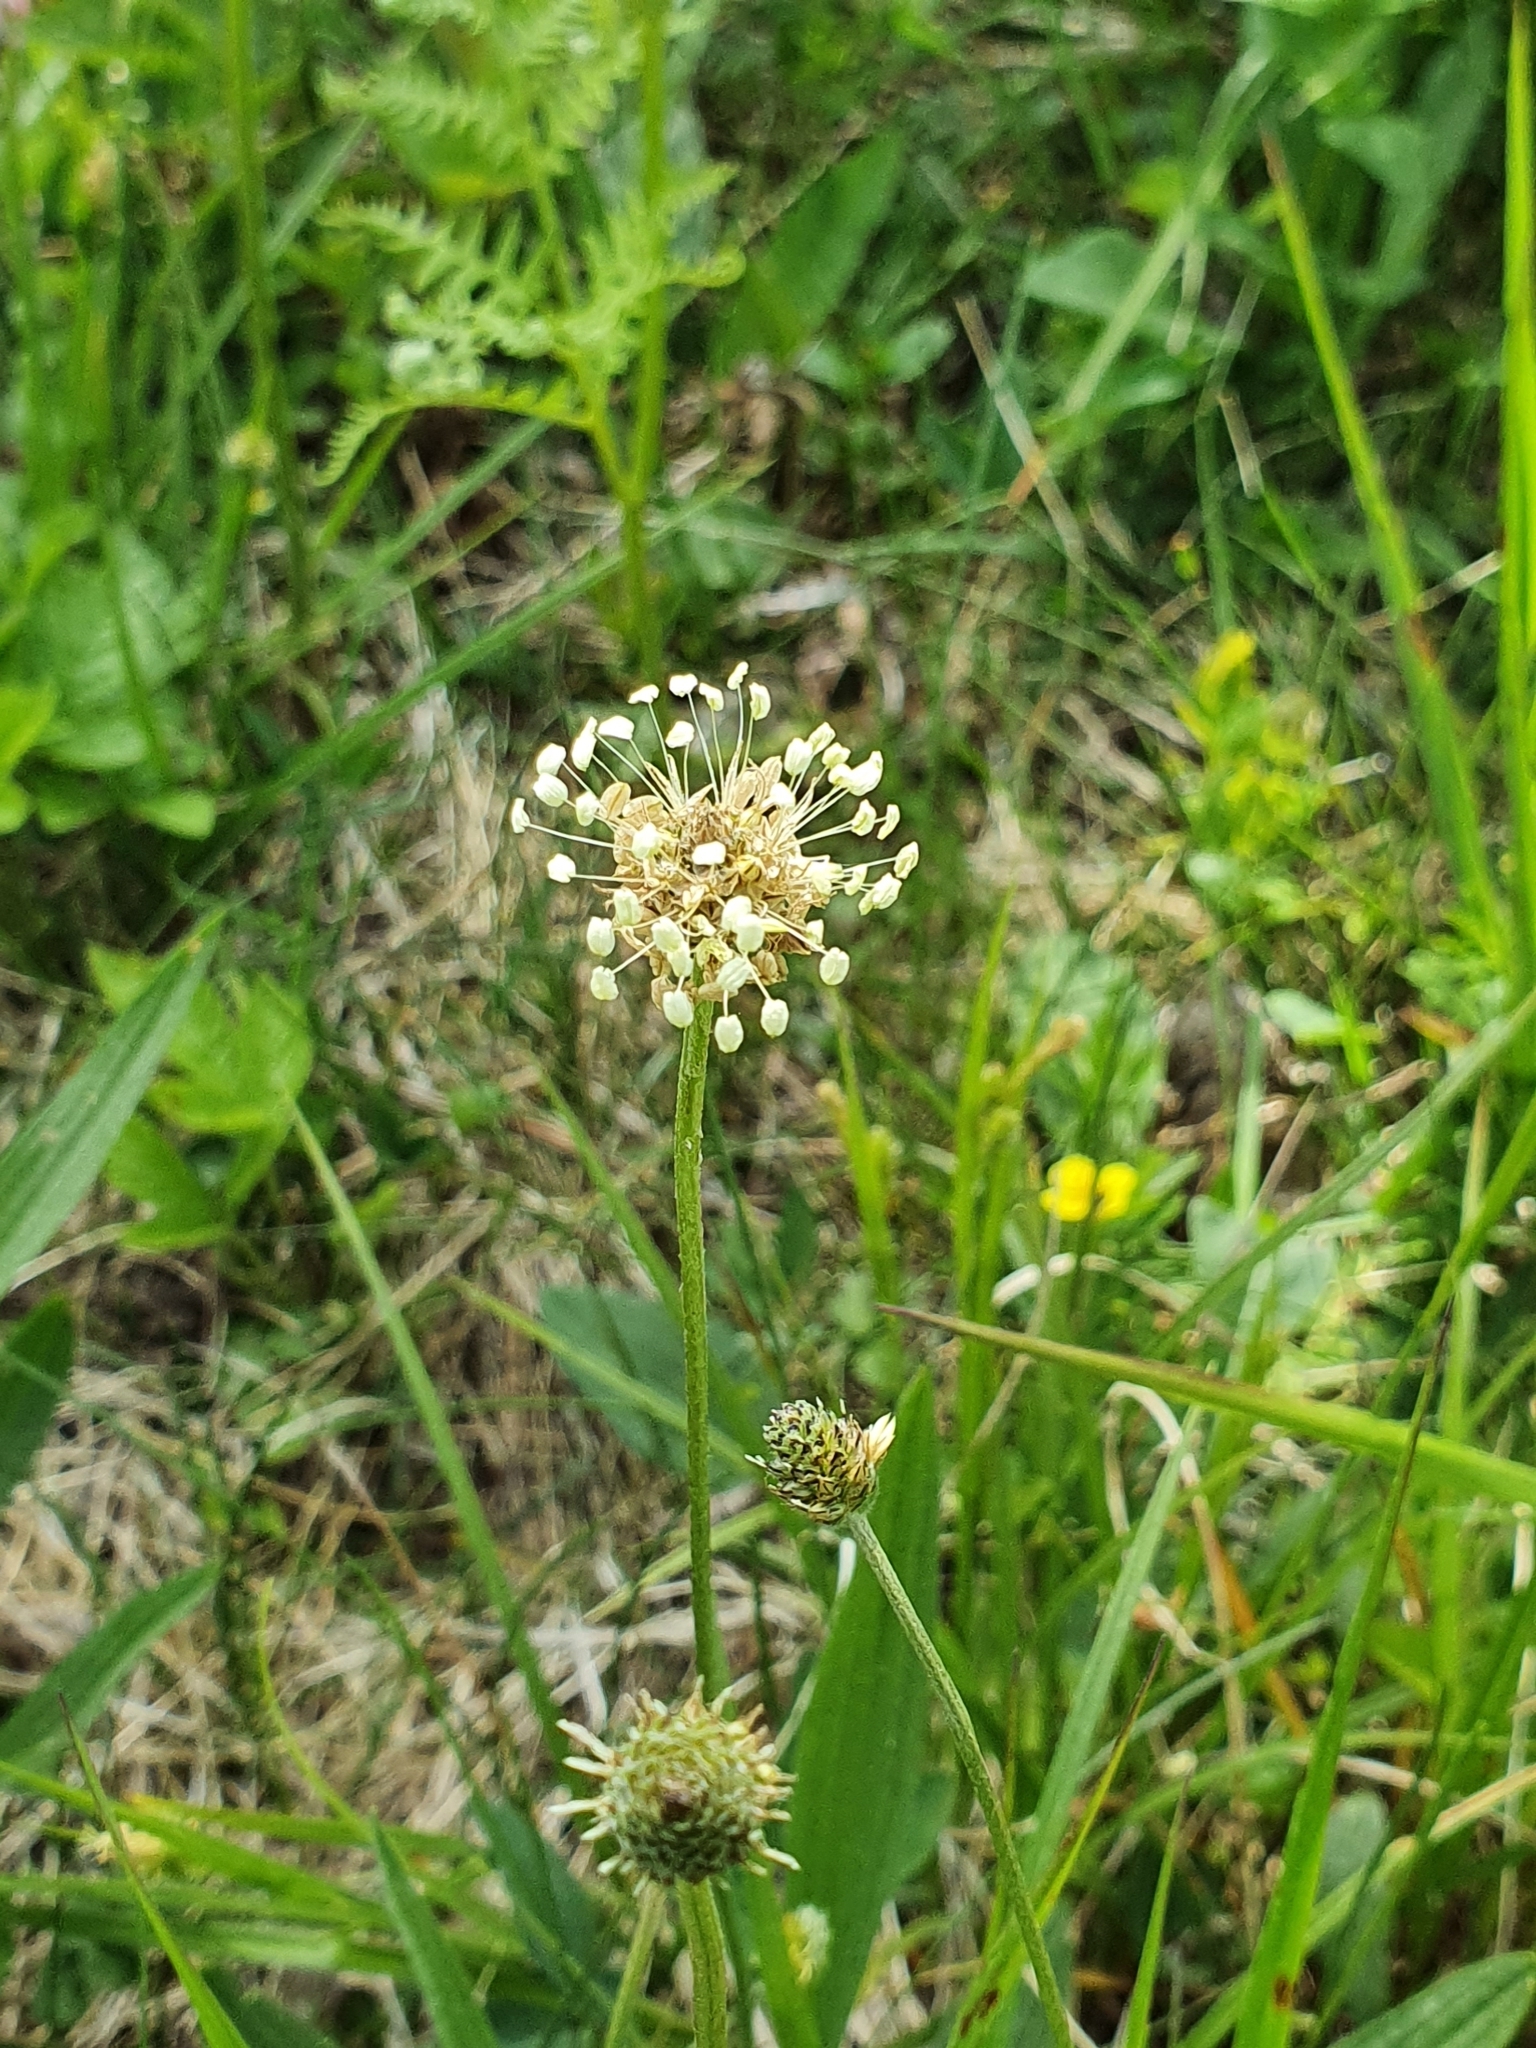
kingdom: Plantae
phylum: Tracheophyta
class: Magnoliopsida
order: Lamiales
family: Plantaginaceae
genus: Plantago
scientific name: Plantago lanceolata
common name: Ribwort plantain
